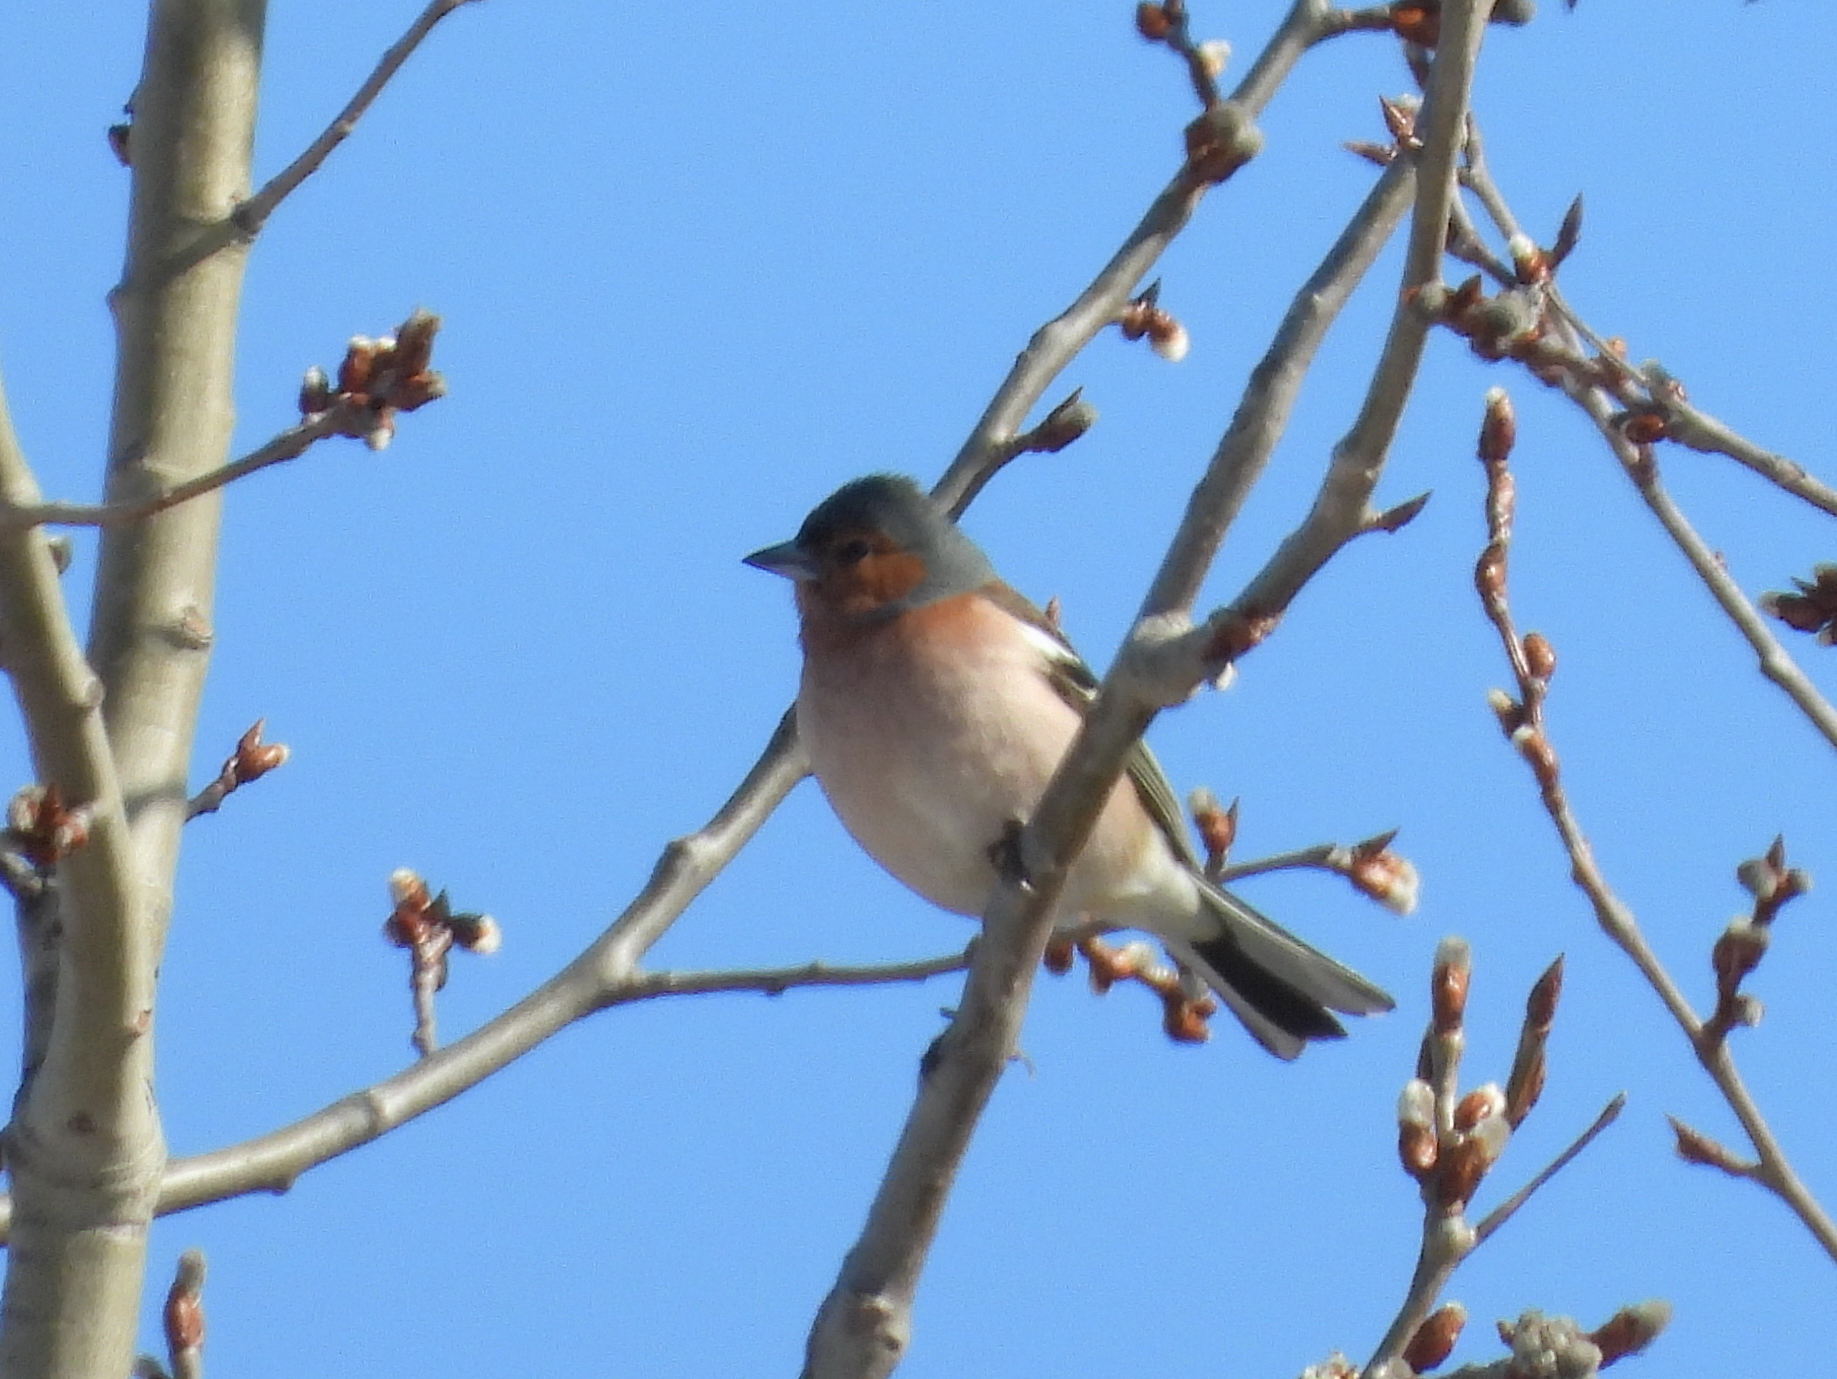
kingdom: Animalia
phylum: Chordata
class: Aves
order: Passeriformes
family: Fringillidae
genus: Fringilla
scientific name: Fringilla coelebs
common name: Common chaffinch
